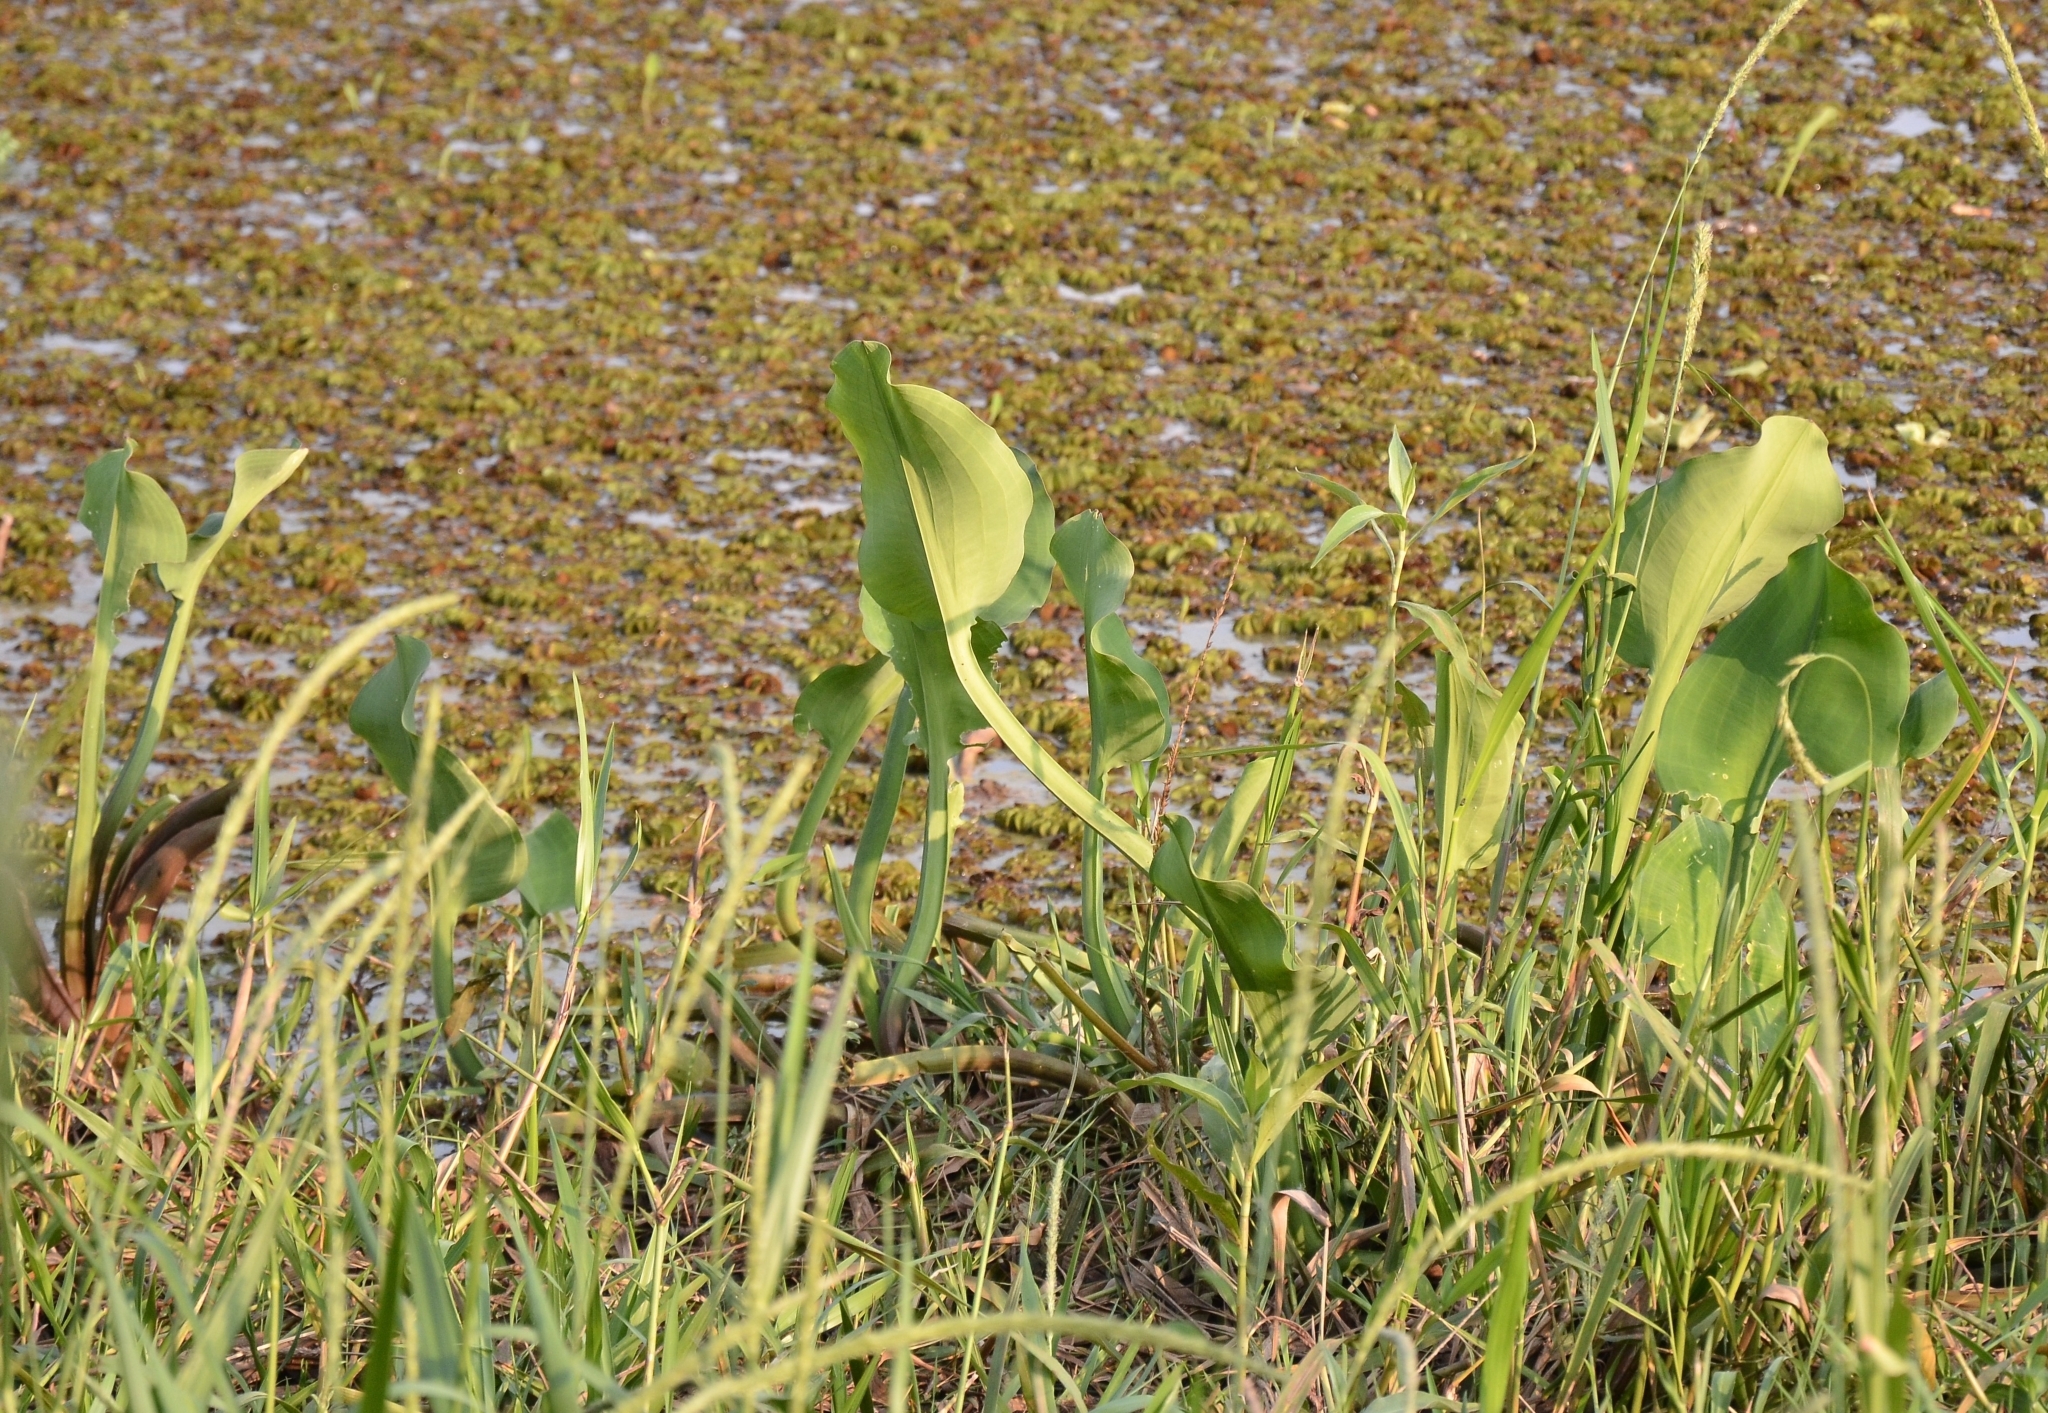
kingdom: Plantae
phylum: Tracheophyta
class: Liliopsida
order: Alismatales
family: Alismataceae
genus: Limnocharis
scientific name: Limnocharis flava
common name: Sawah-flower-rush
